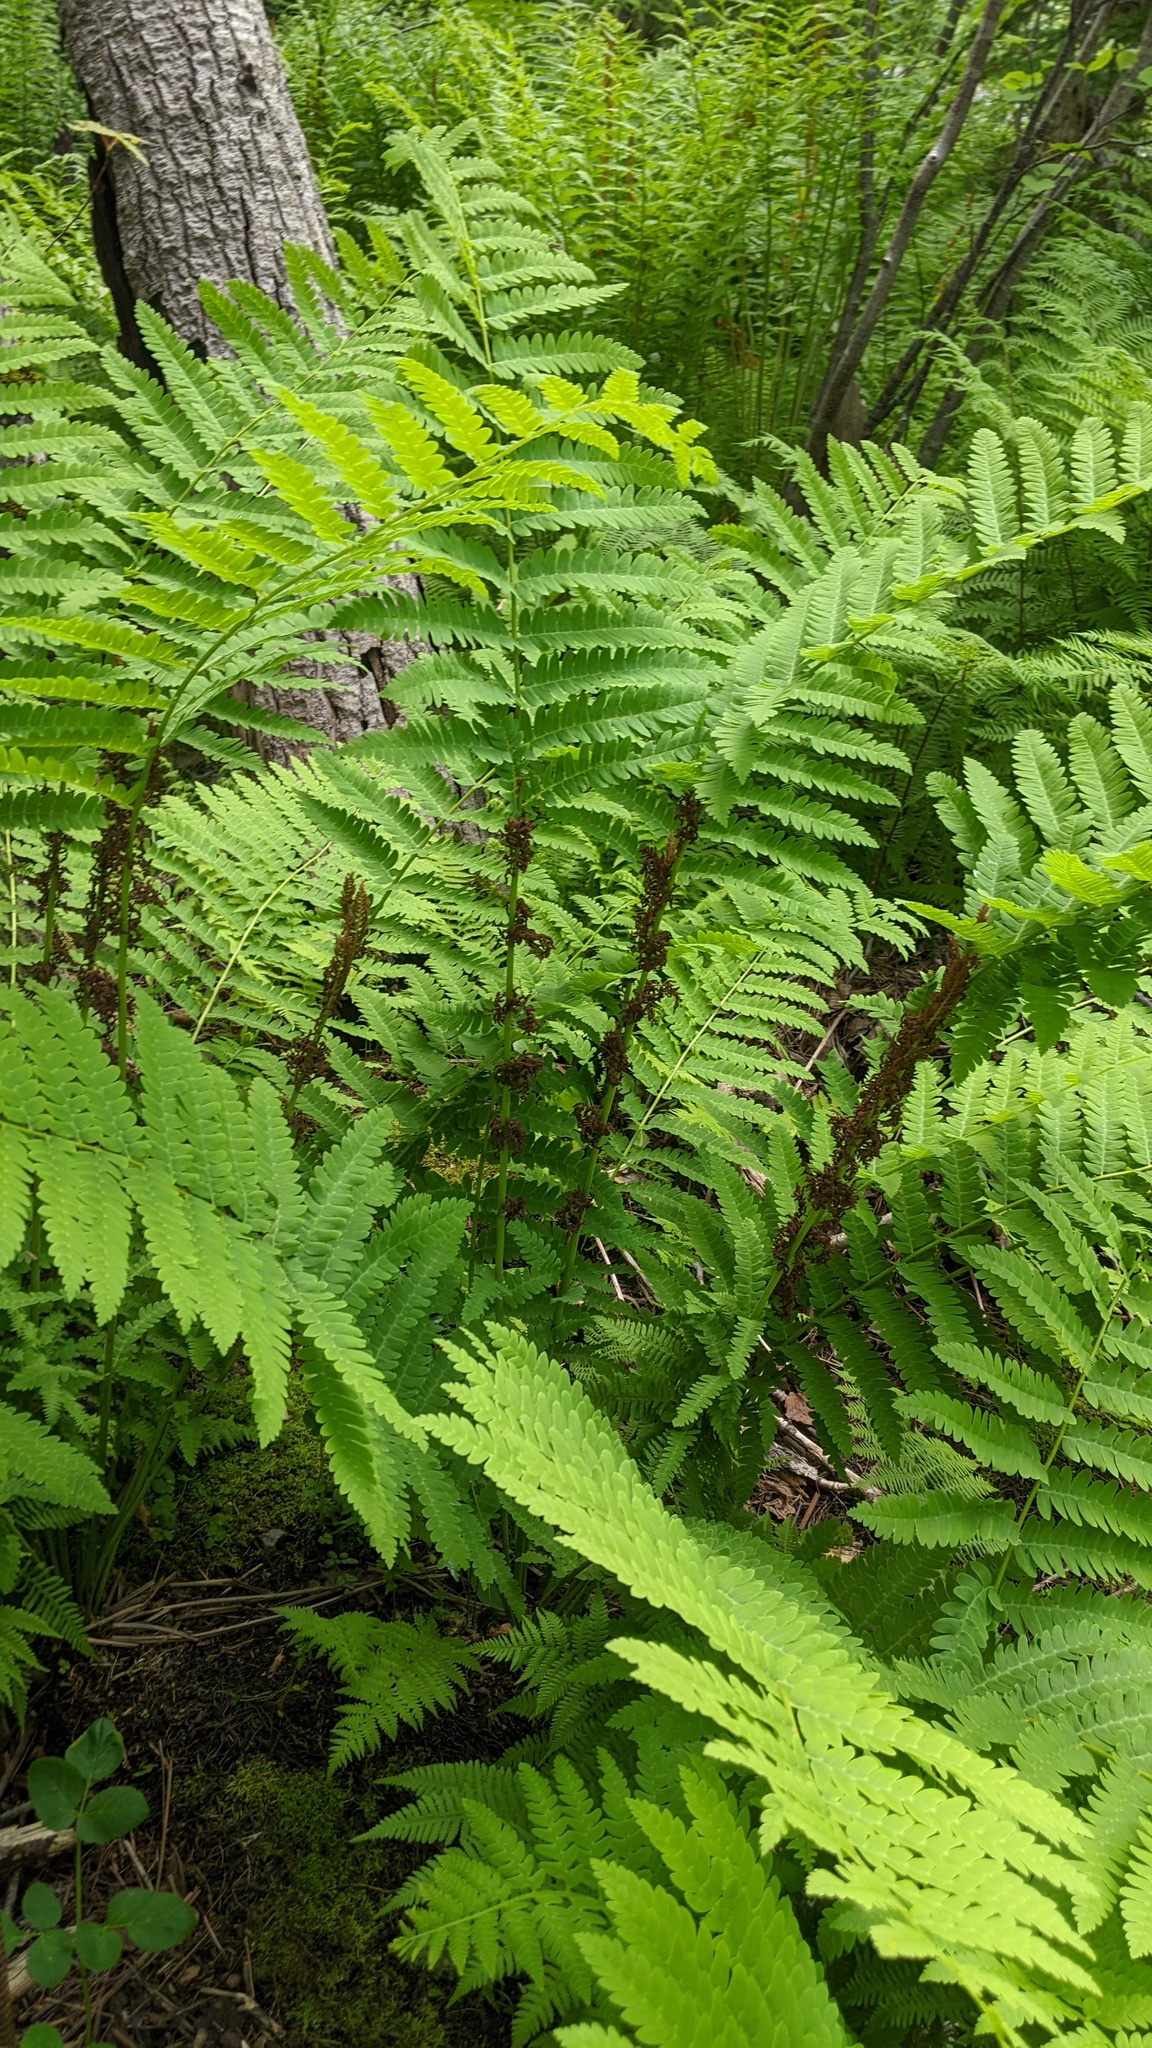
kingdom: Plantae
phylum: Tracheophyta
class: Polypodiopsida
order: Osmundales
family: Osmundaceae
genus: Claytosmunda
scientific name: Claytosmunda claytoniana
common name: Clayton's fern
